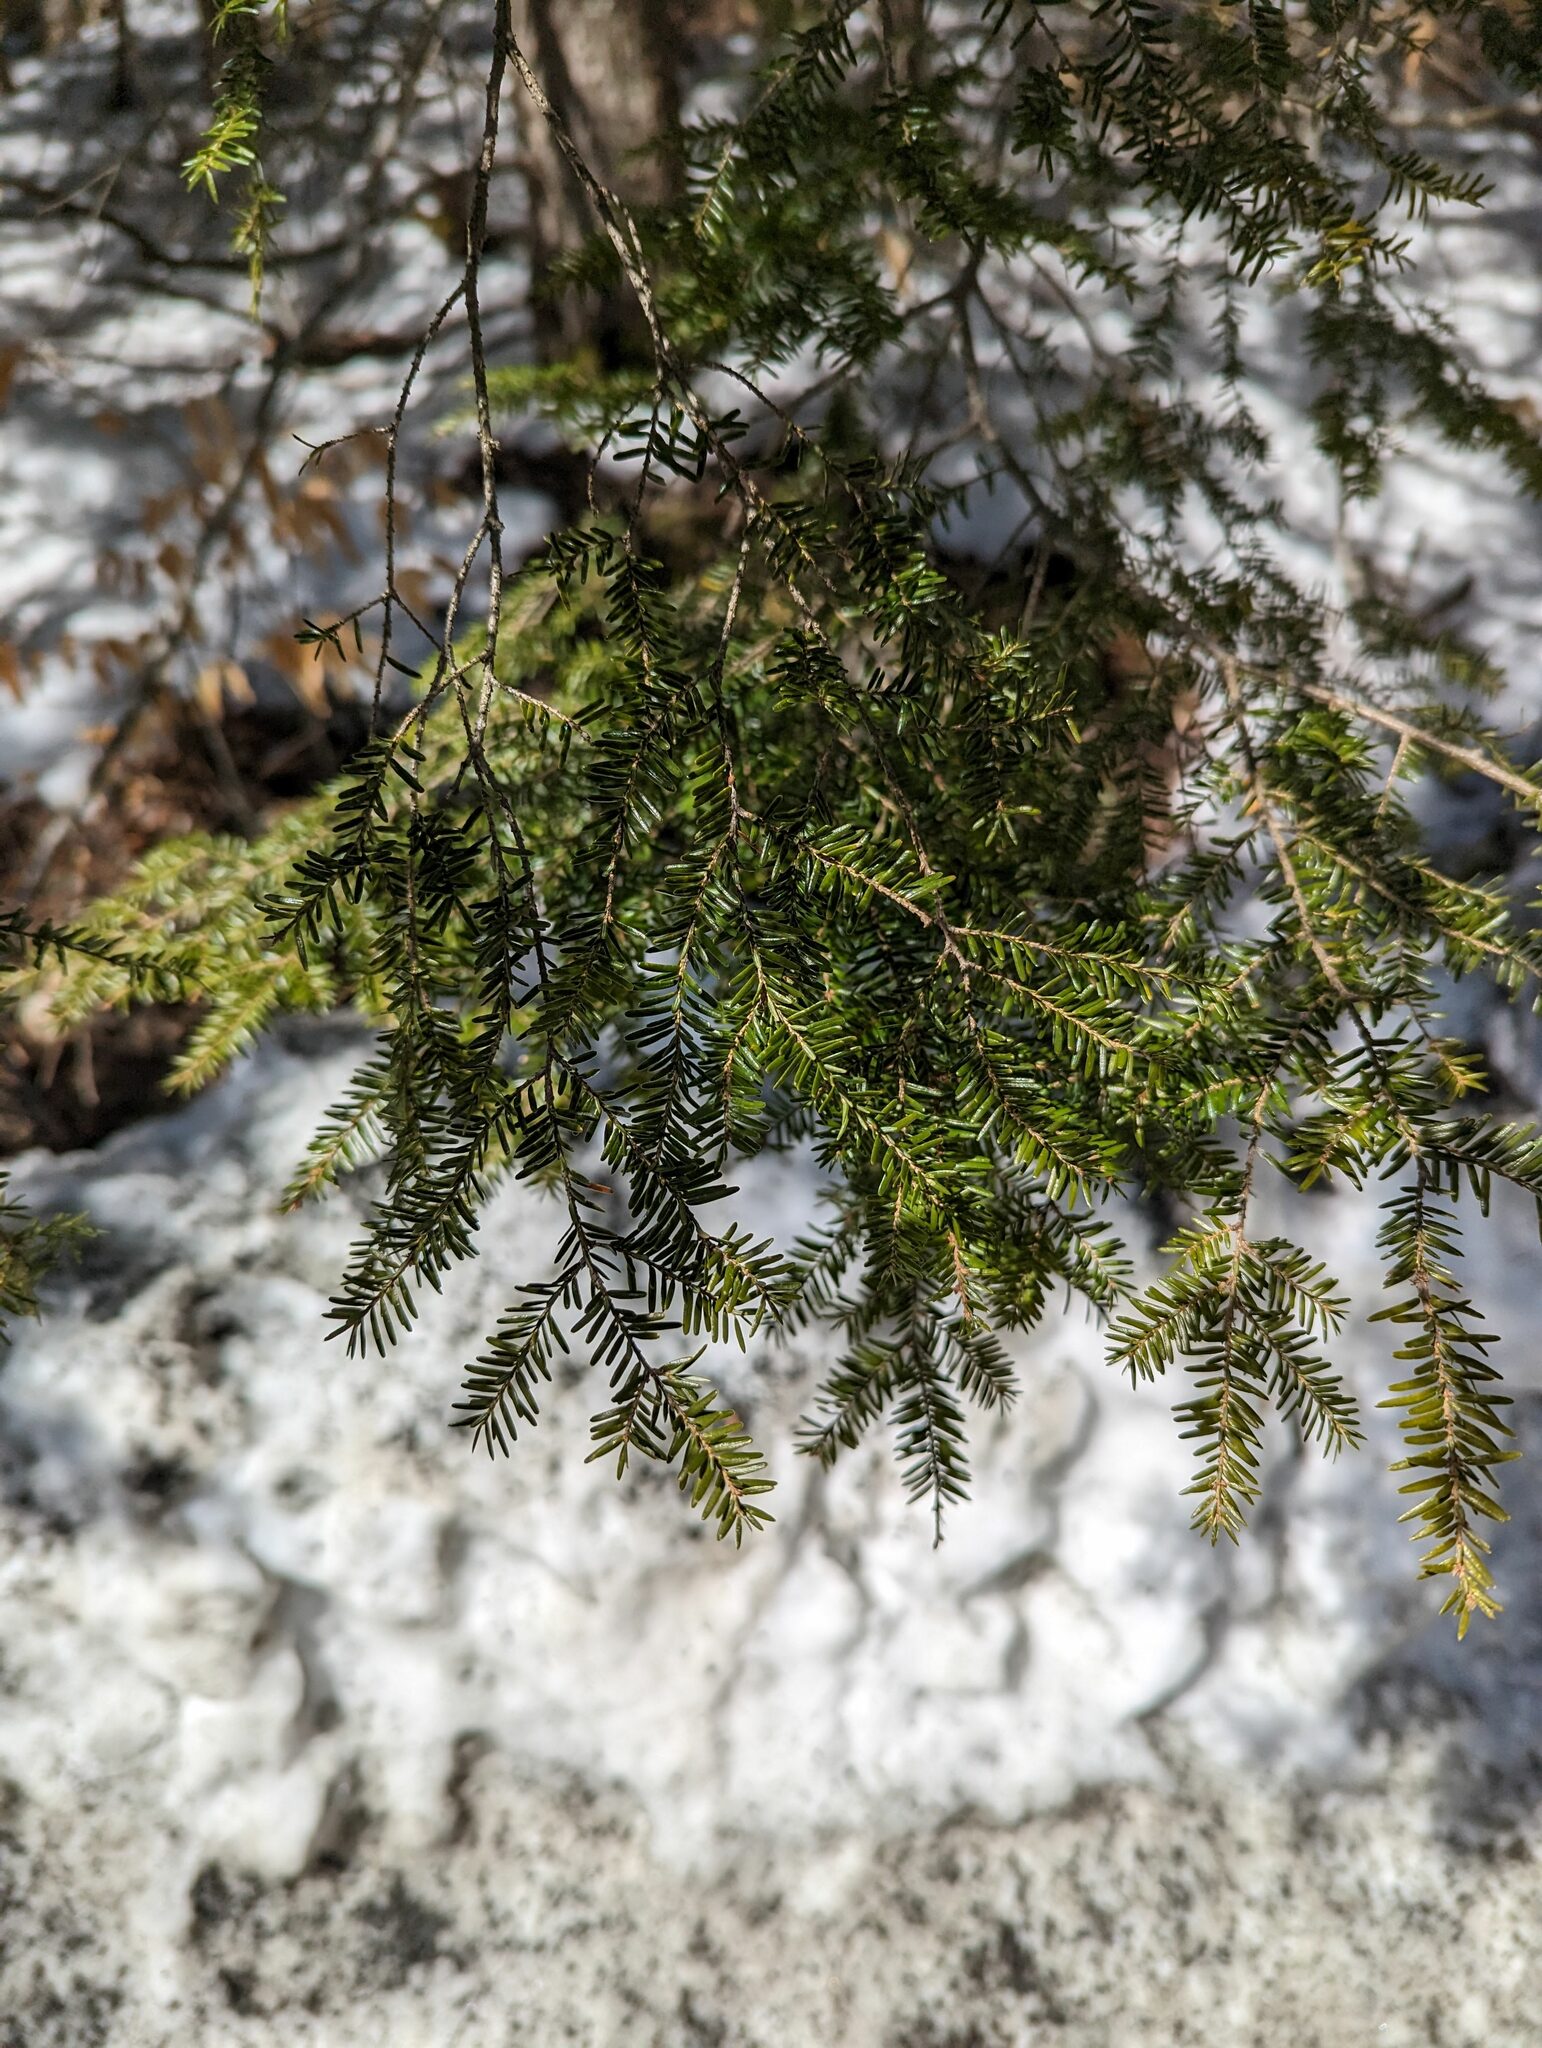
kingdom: Plantae
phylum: Tracheophyta
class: Pinopsida
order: Pinales
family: Pinaceae
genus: Tsuga
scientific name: Tsuga canadensis
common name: Eastern hemlock
